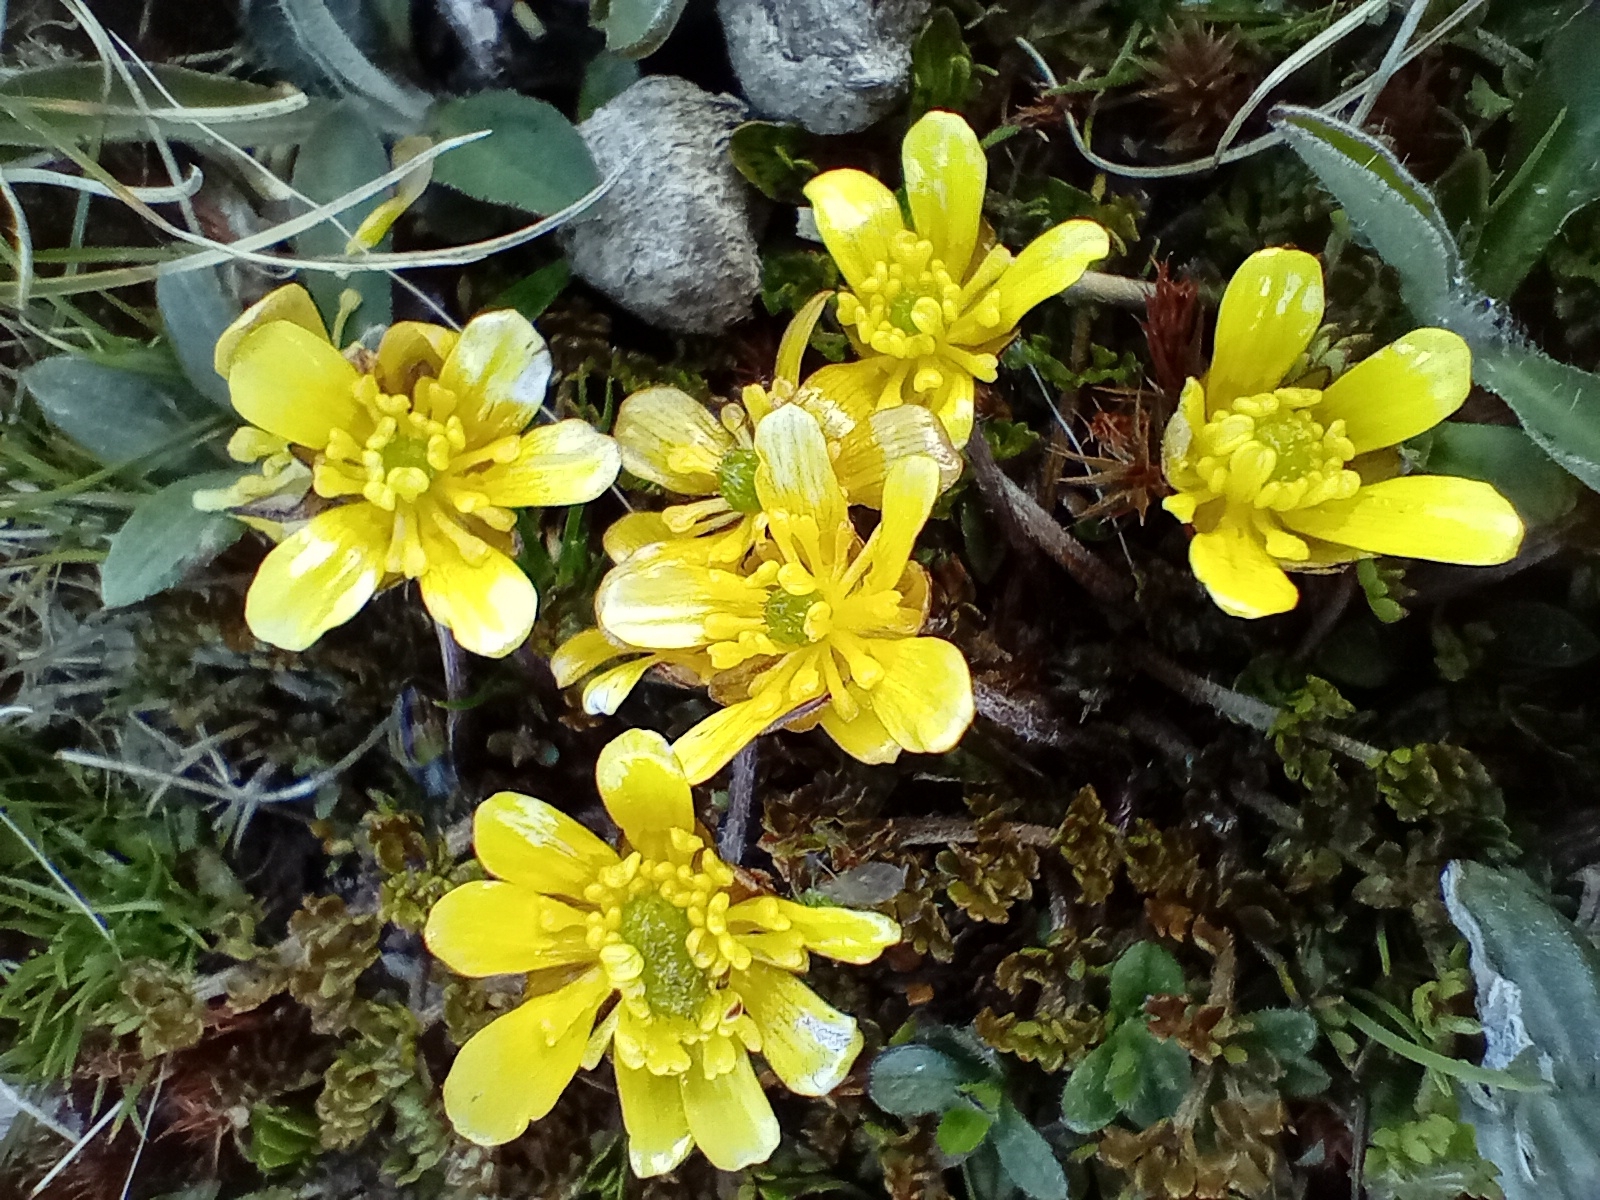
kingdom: Plantae
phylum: Tracheophyta
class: Magnoliopsida
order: Ranunculales
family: Ranunculaceae
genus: Ranunculus
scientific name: Ranunculus gracilipes
